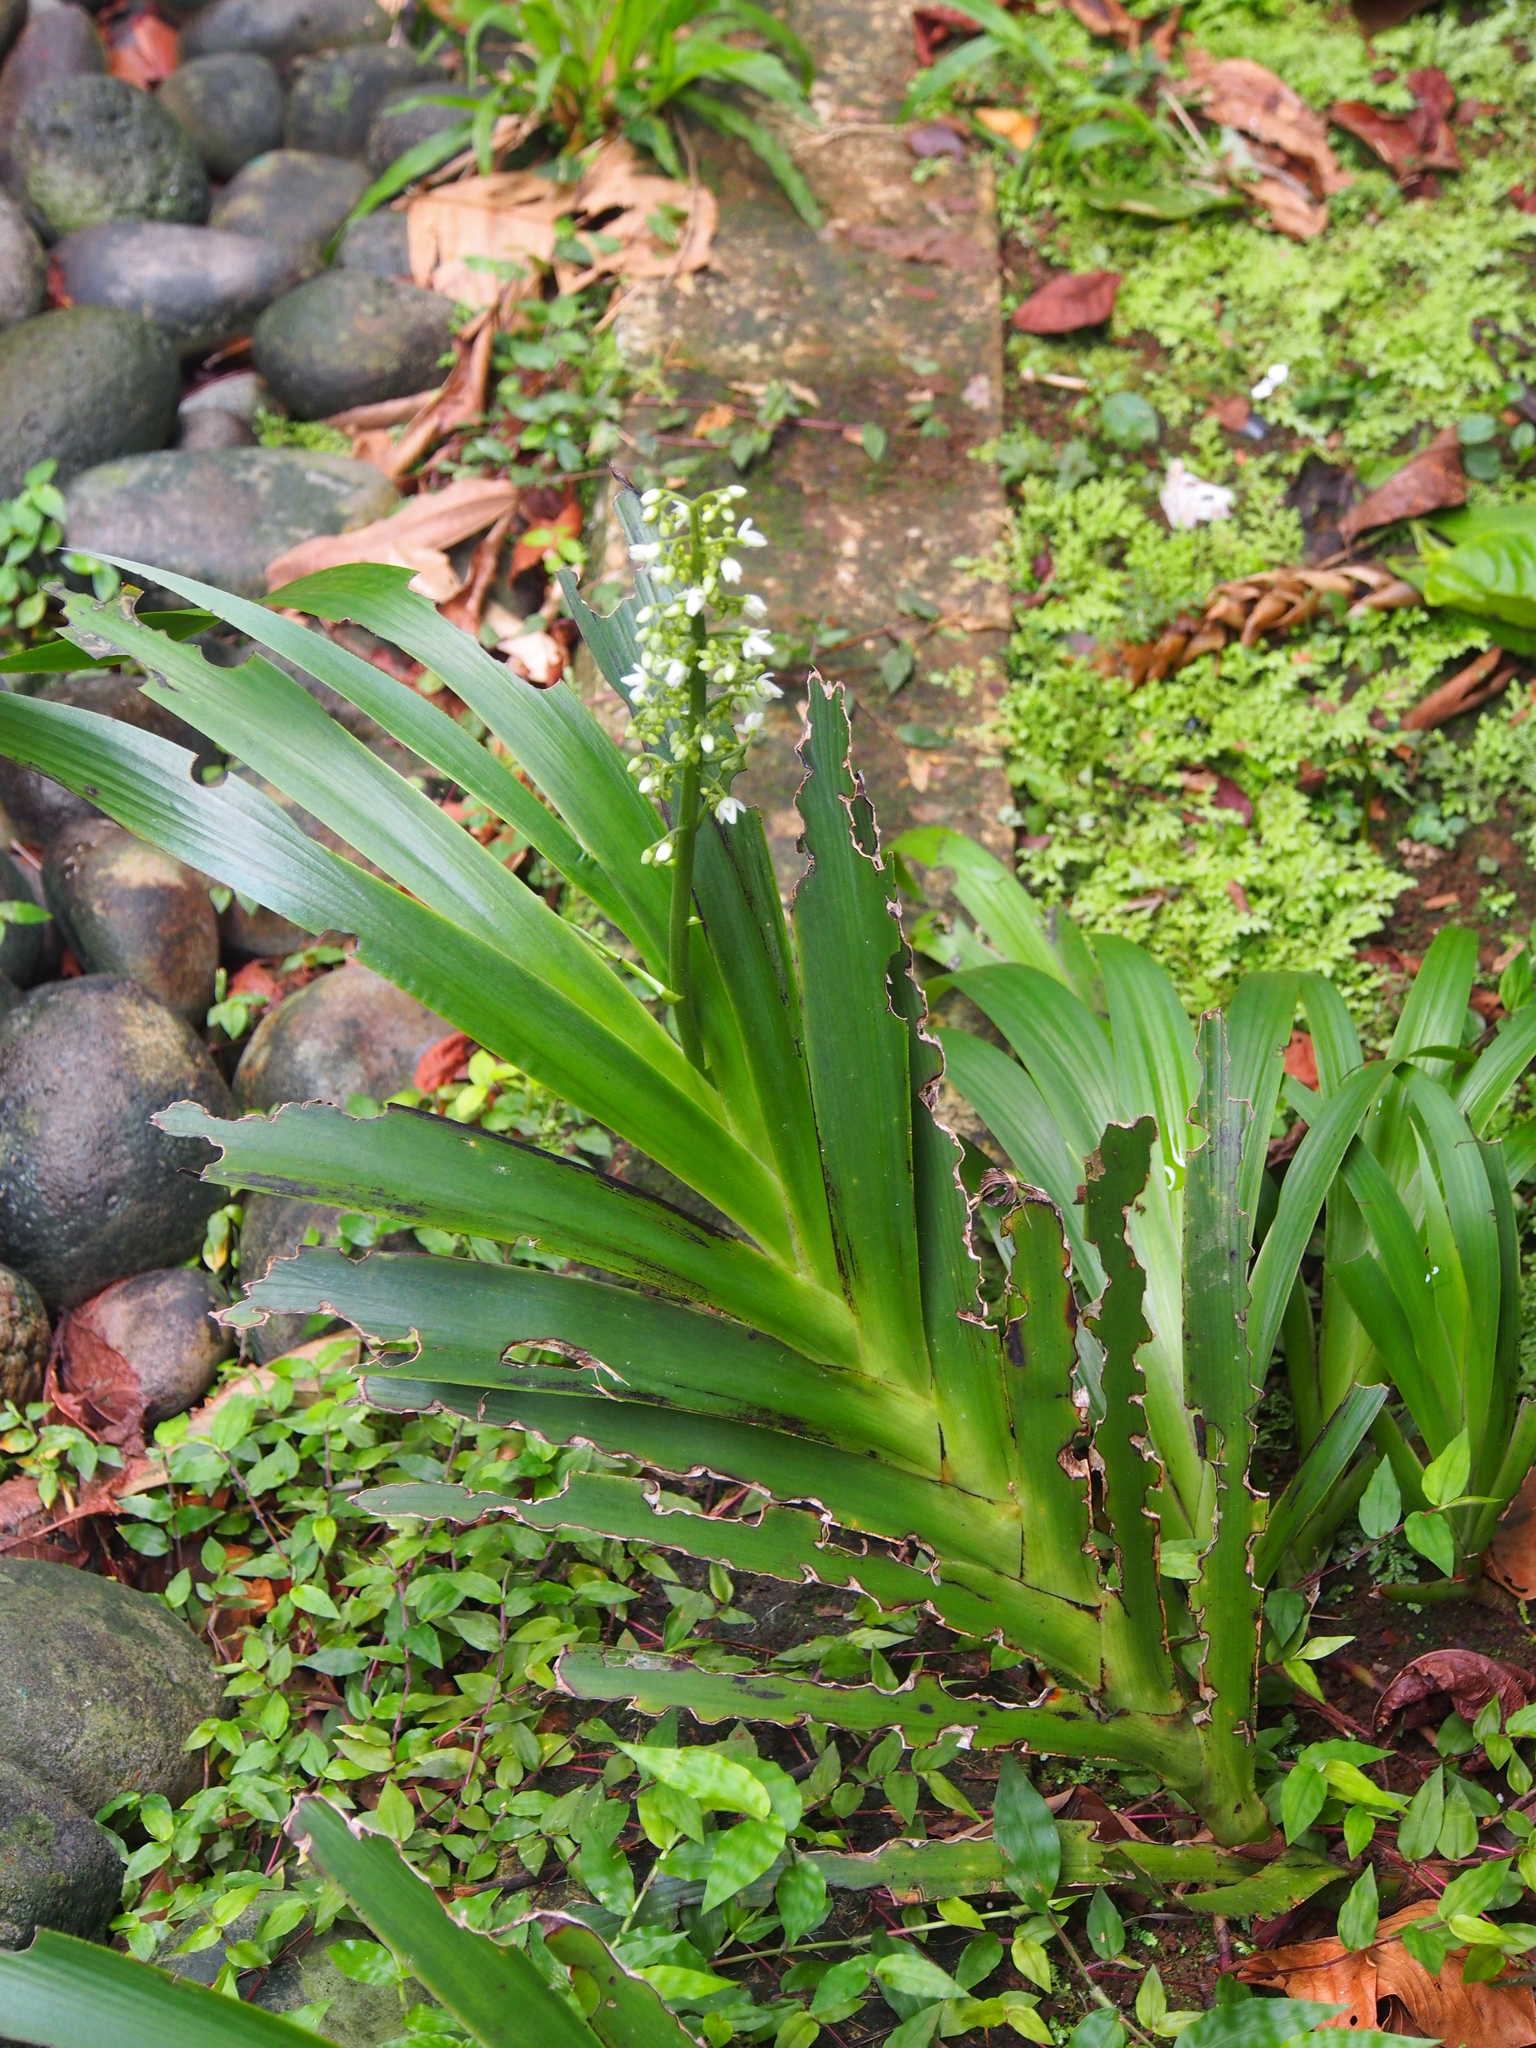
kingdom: Plantae
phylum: Tracheophyta
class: Liliopsida
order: Commelinales
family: Haemodoraceae
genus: Xiphidium
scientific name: Xiphidium caeruleum
